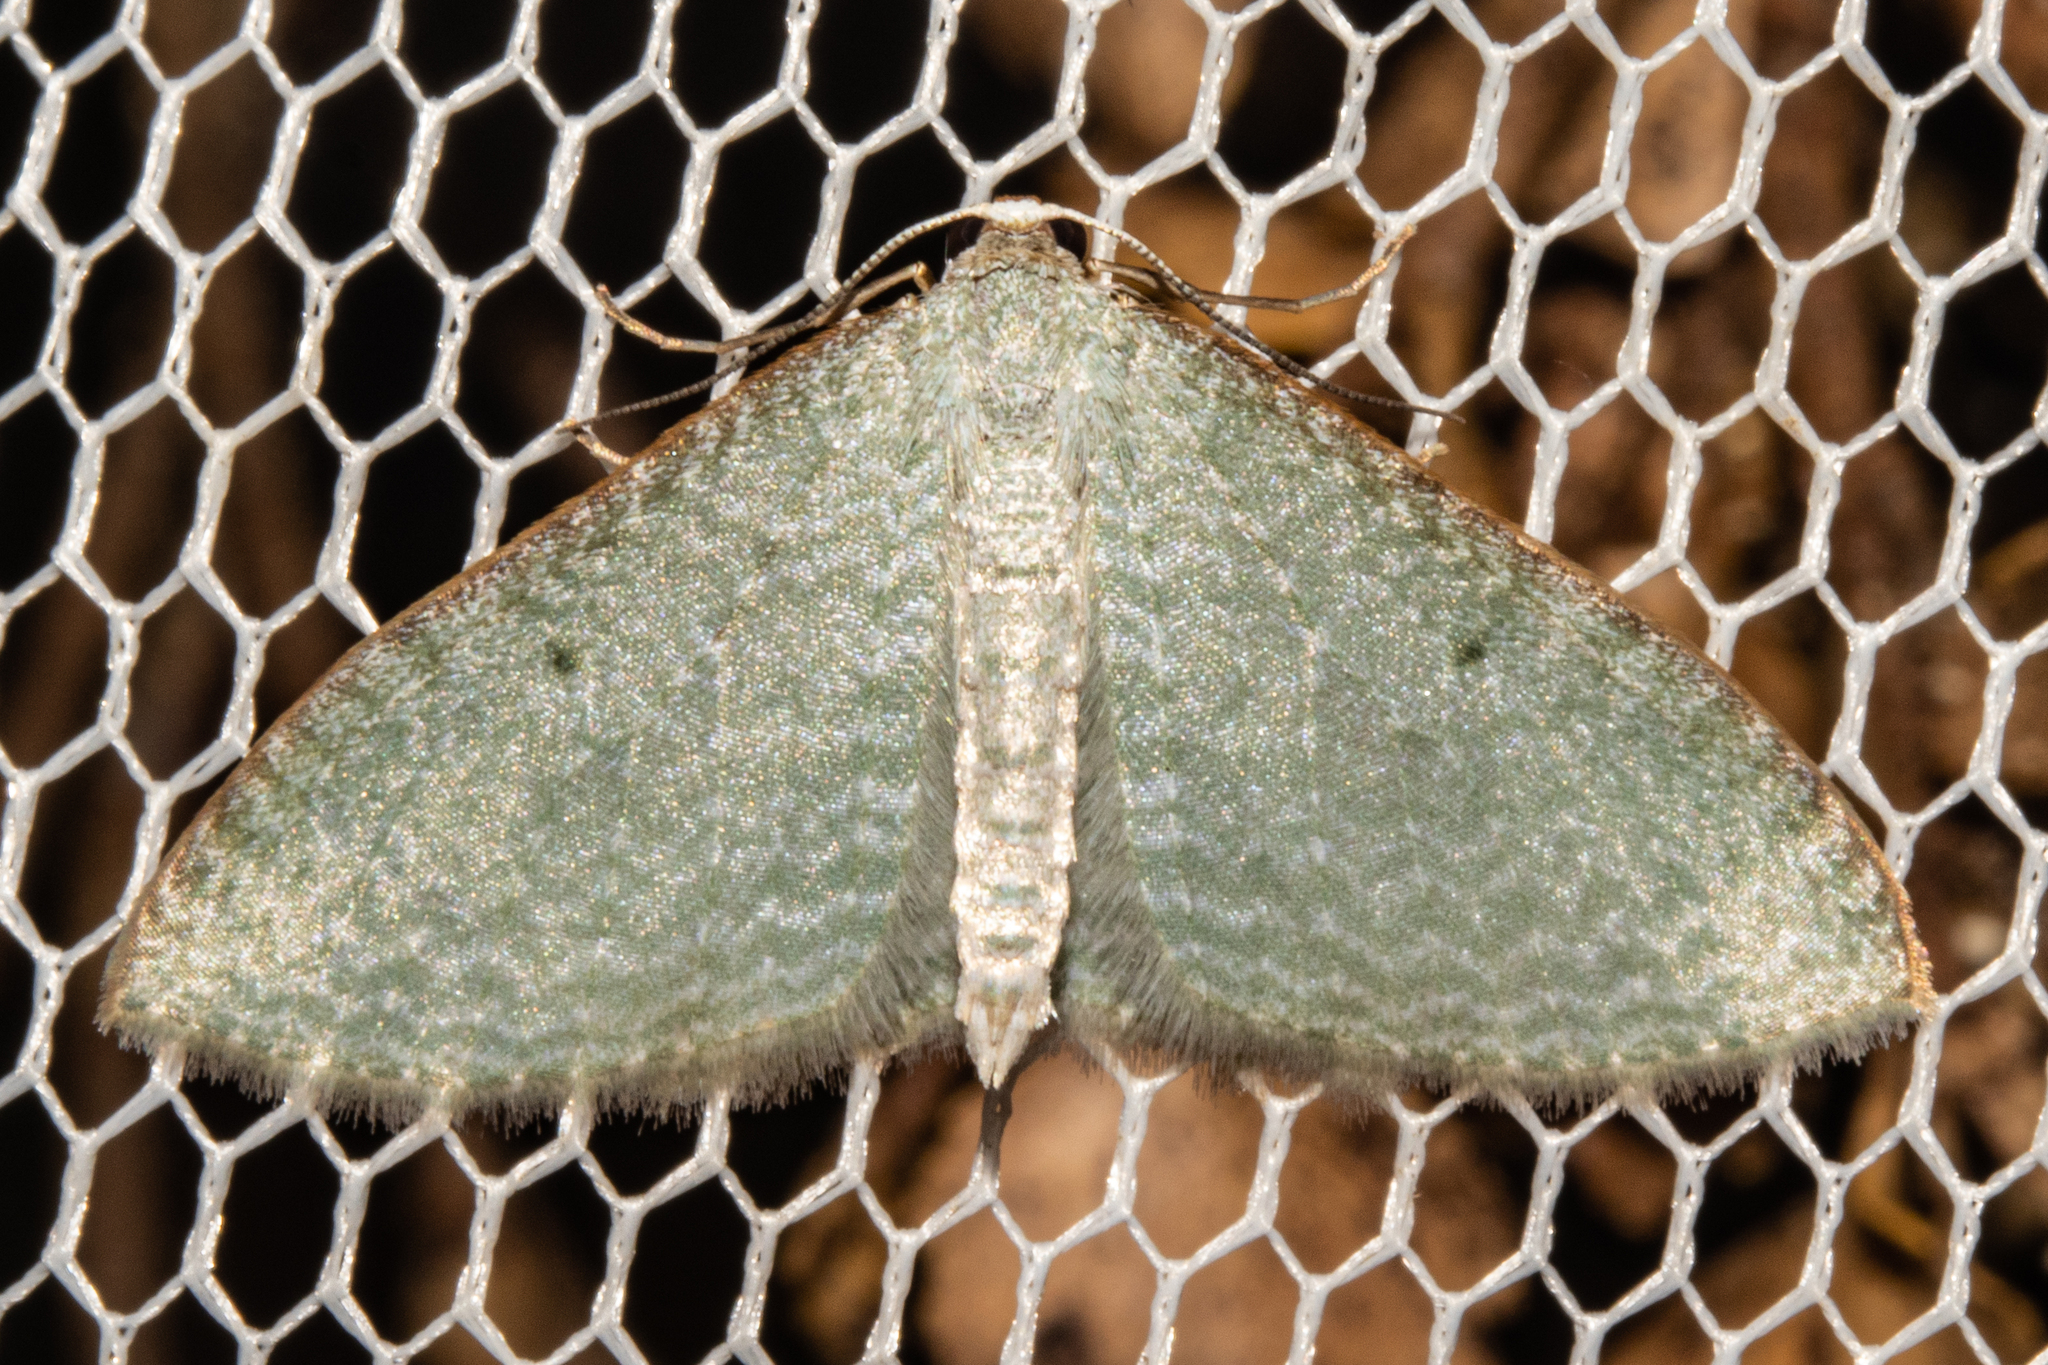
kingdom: Animalia
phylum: Arthropoda
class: Insecta
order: Lepidoptera
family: Geometridae
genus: Poecilasthena
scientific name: Poecilasthena pulchraria
